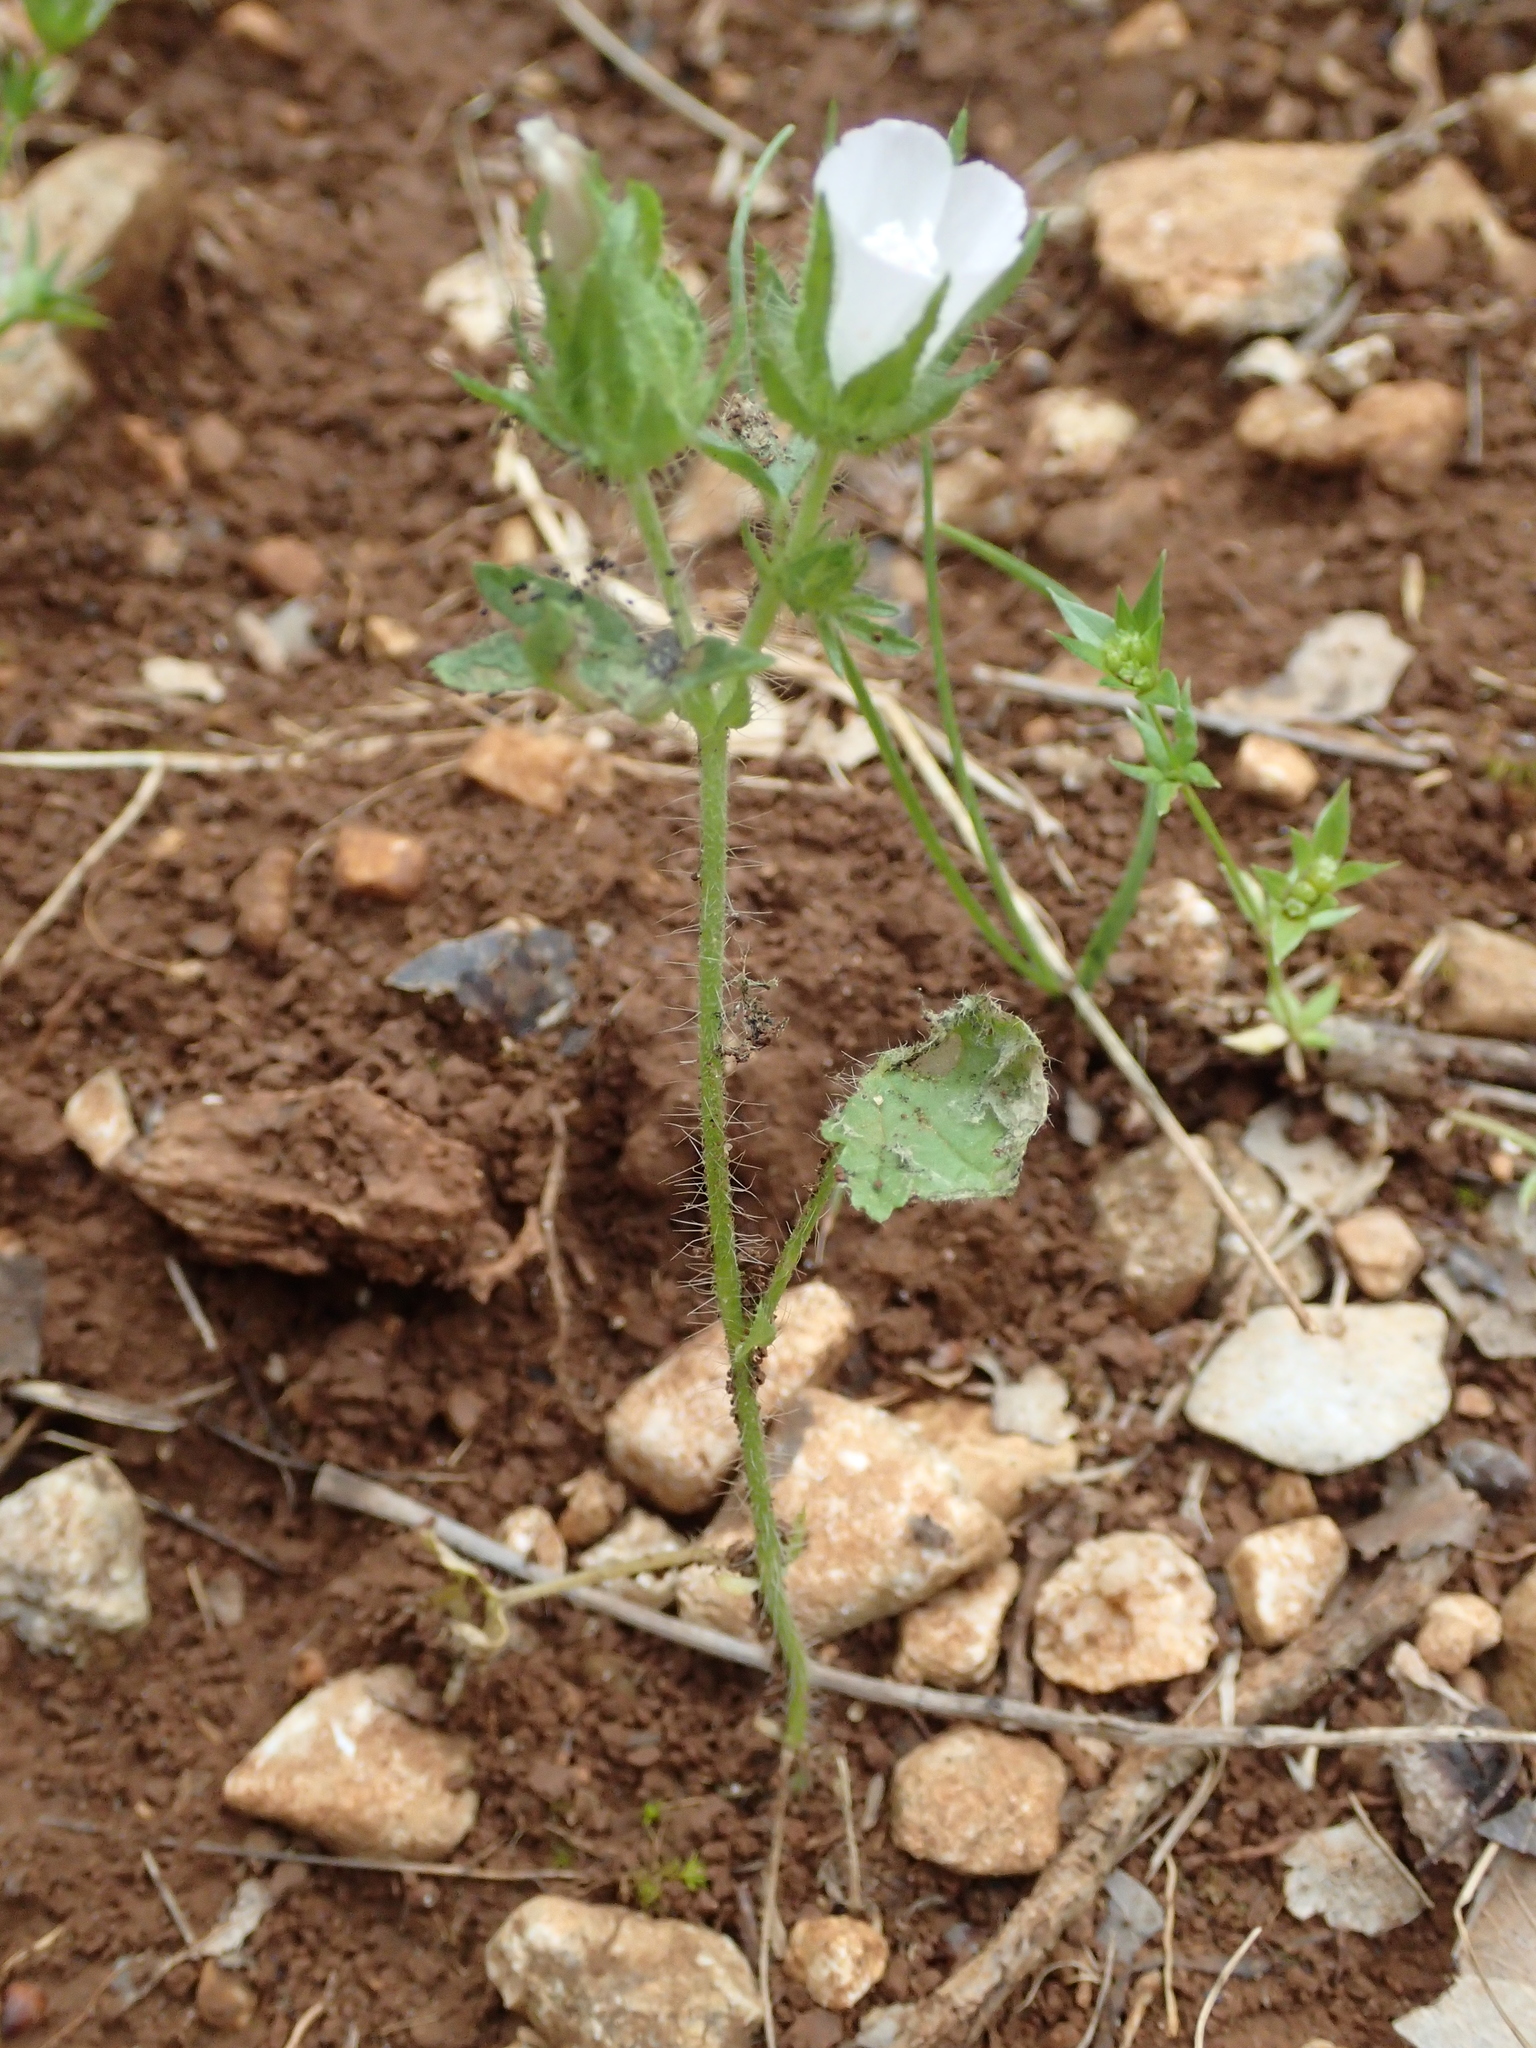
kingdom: Plantae
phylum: Tracheophyta
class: Magnoliopsida
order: Malvales
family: Malvaceae
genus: Althaea
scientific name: Althaea hirsuta
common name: Rough marsh-mallow
